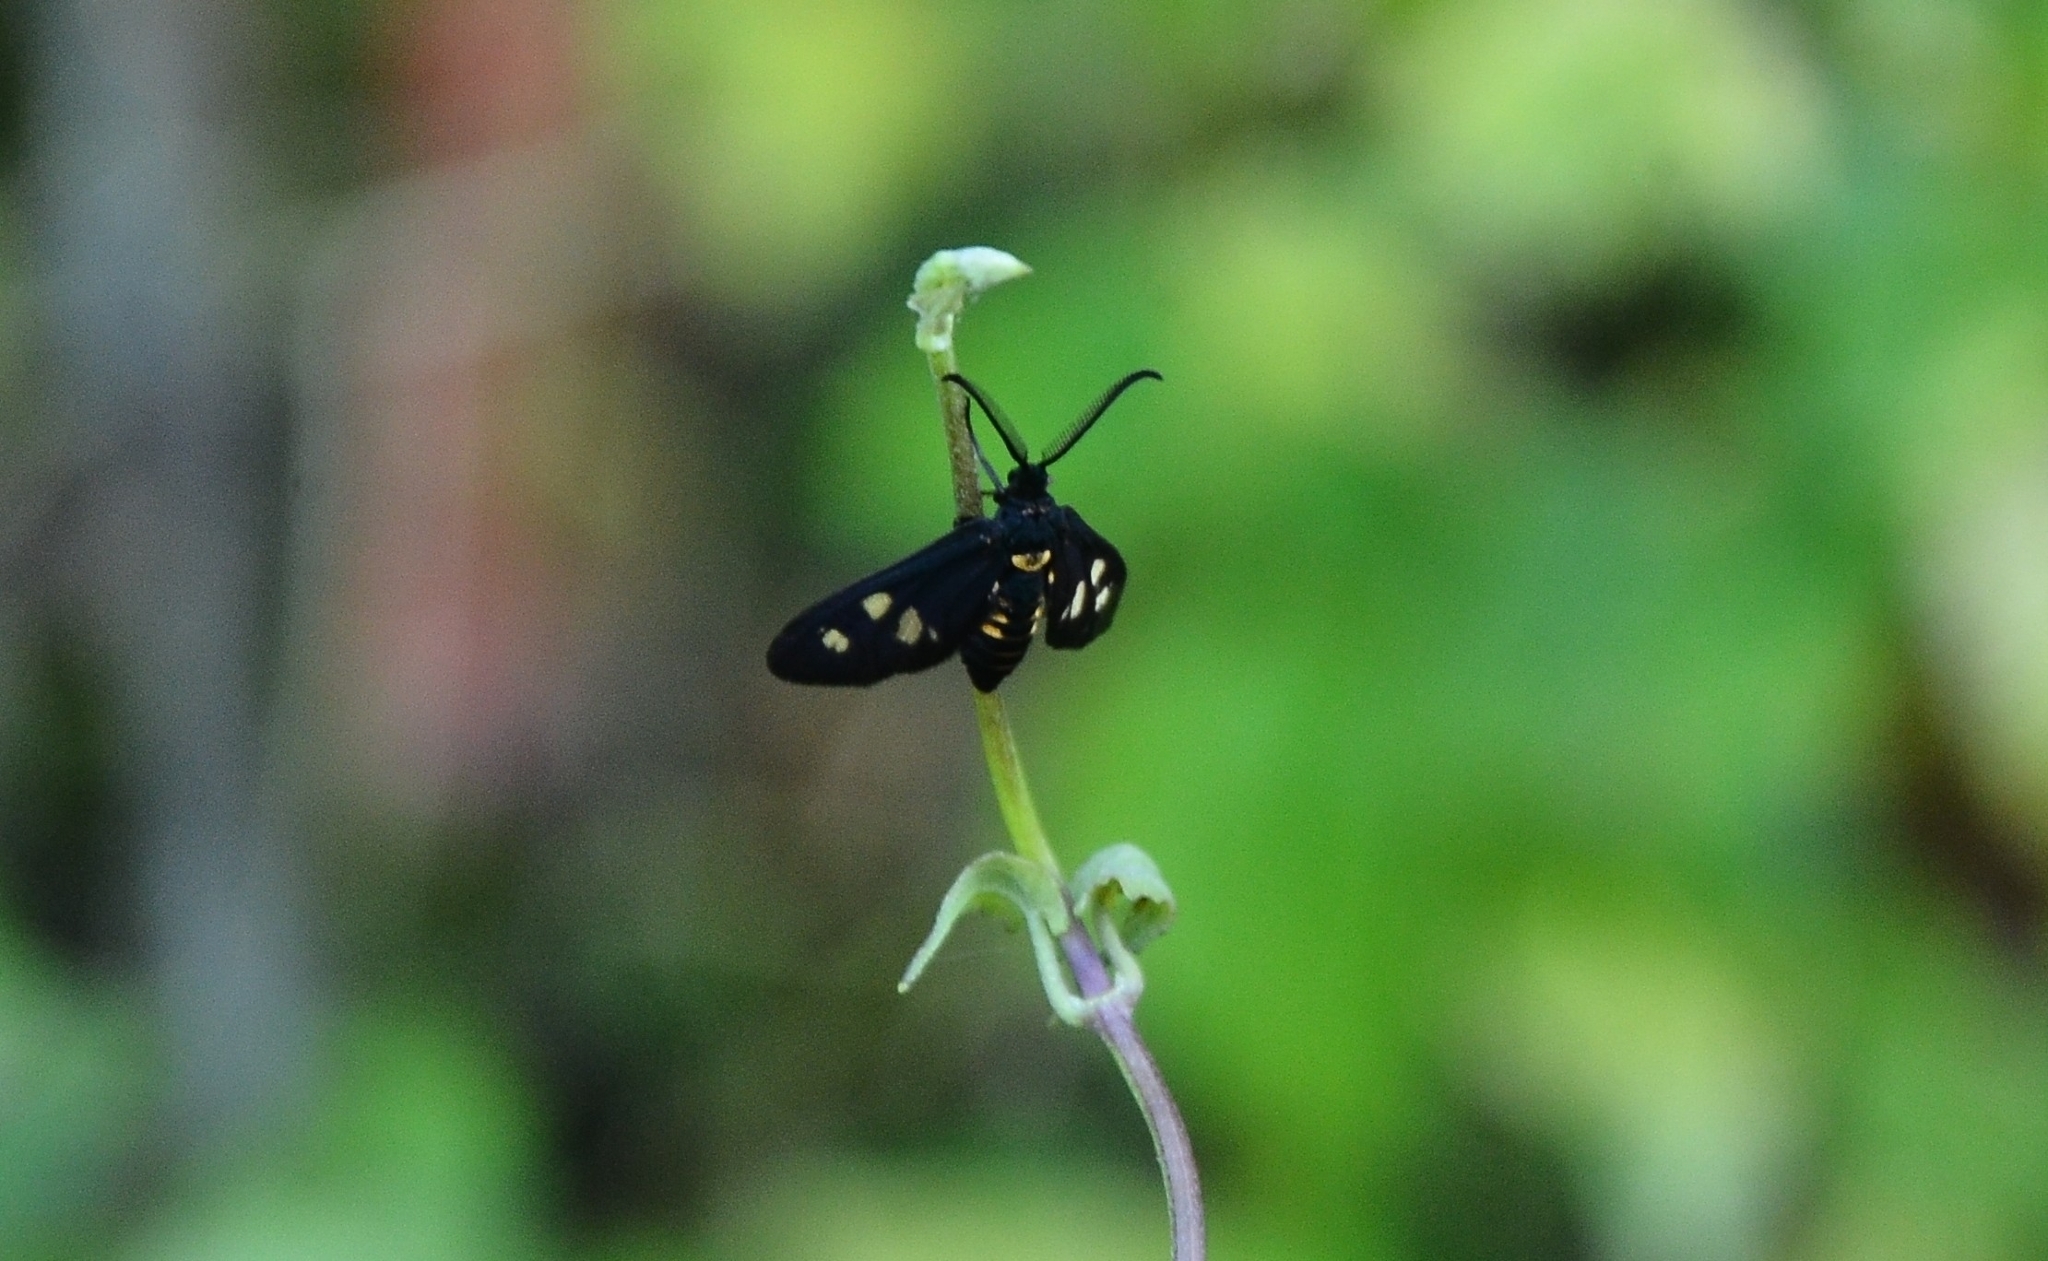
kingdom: Animalia
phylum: Arthropoda
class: Insecta
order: Lepidoptera
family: Zygaenidae
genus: Thyrassia
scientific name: Thyrassia
